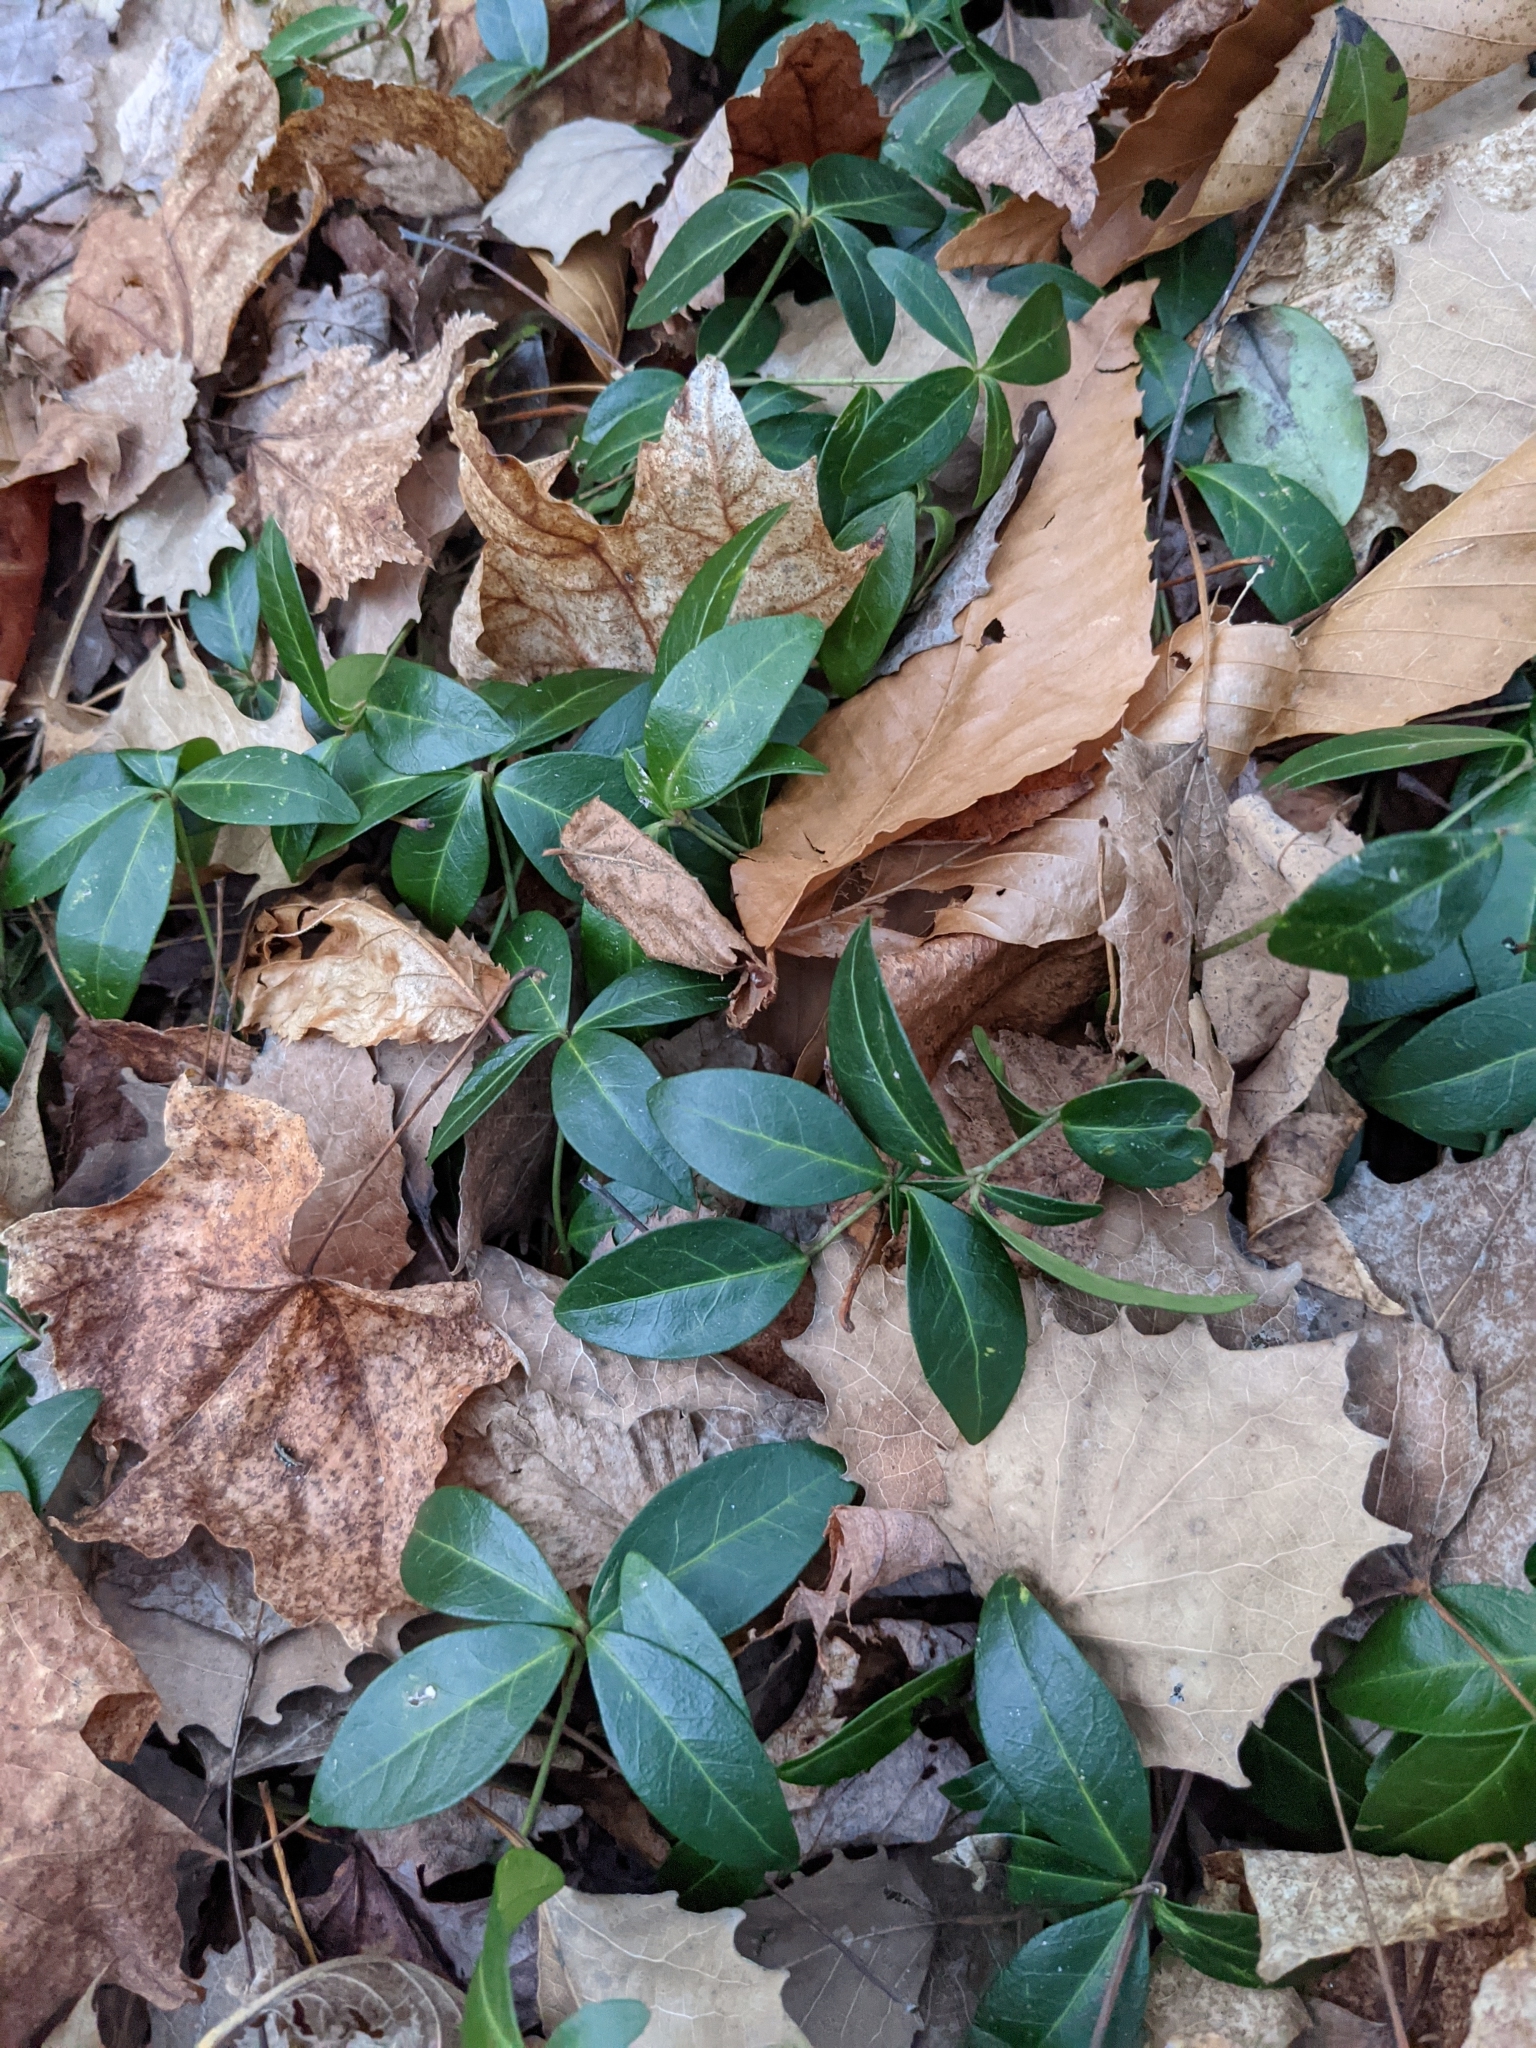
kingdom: Plantae
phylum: Tracheophyta
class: Magnoliopsida
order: Gentianales
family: Apocynaceae
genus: Vinca
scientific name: Vinca minor
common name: Lesser periwinkle
